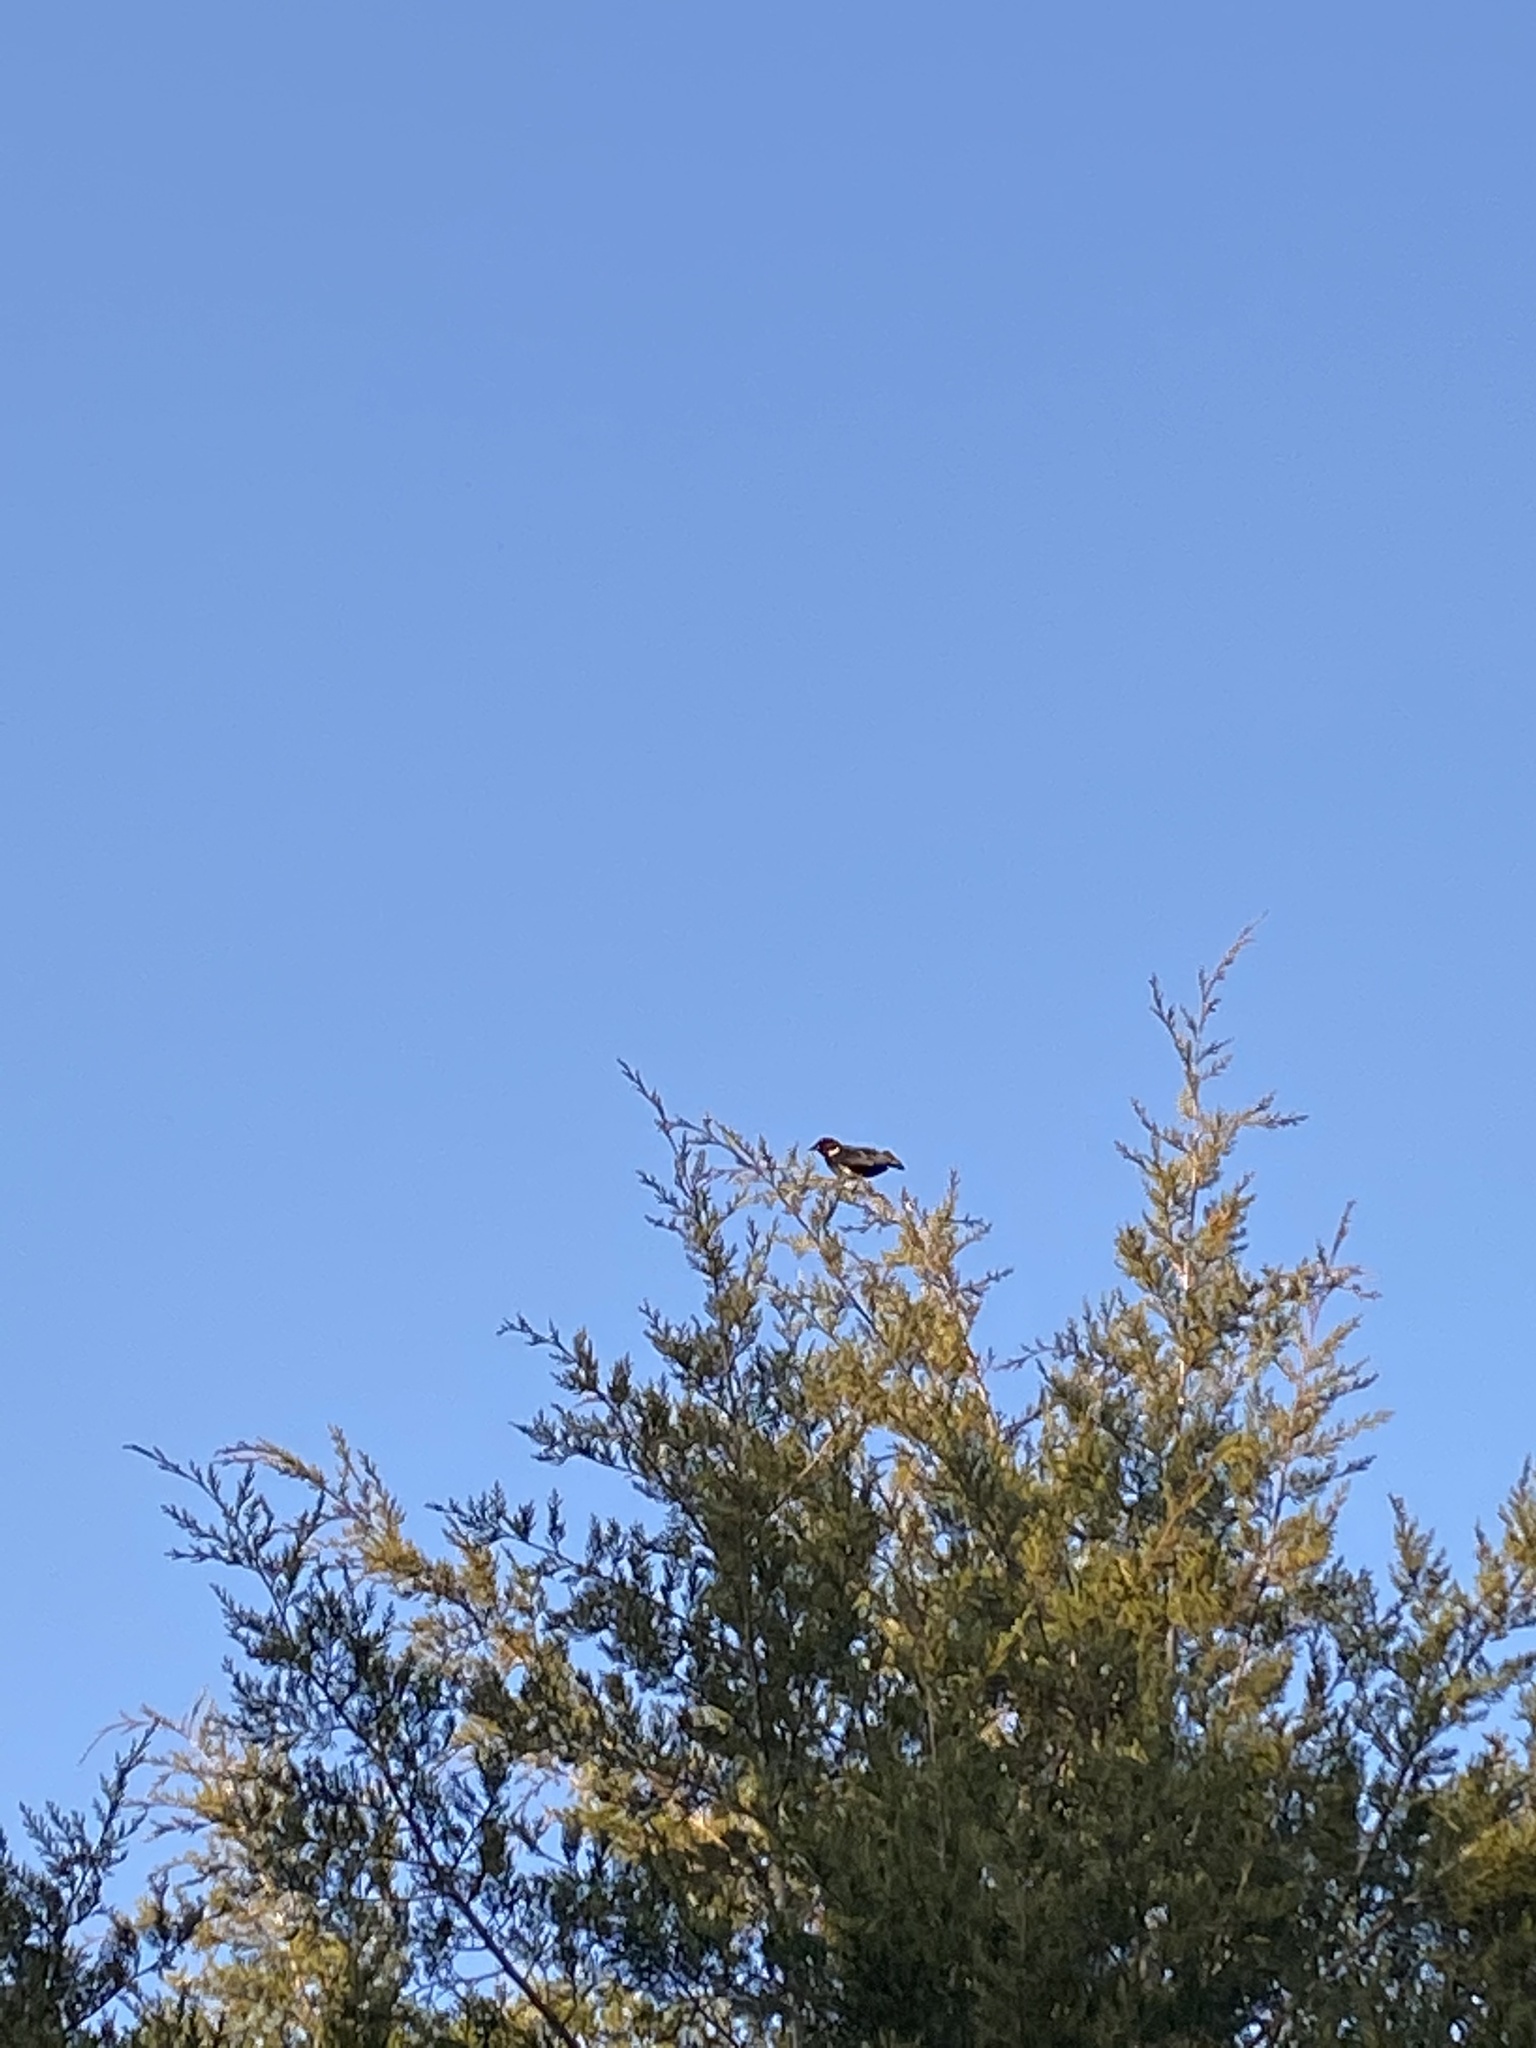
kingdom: Animalia
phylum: Chordata
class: Aves
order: Passeriformes
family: Icteridae
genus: Agelaius
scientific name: Agelaius phoeniceus
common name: Red-winged blackbird
